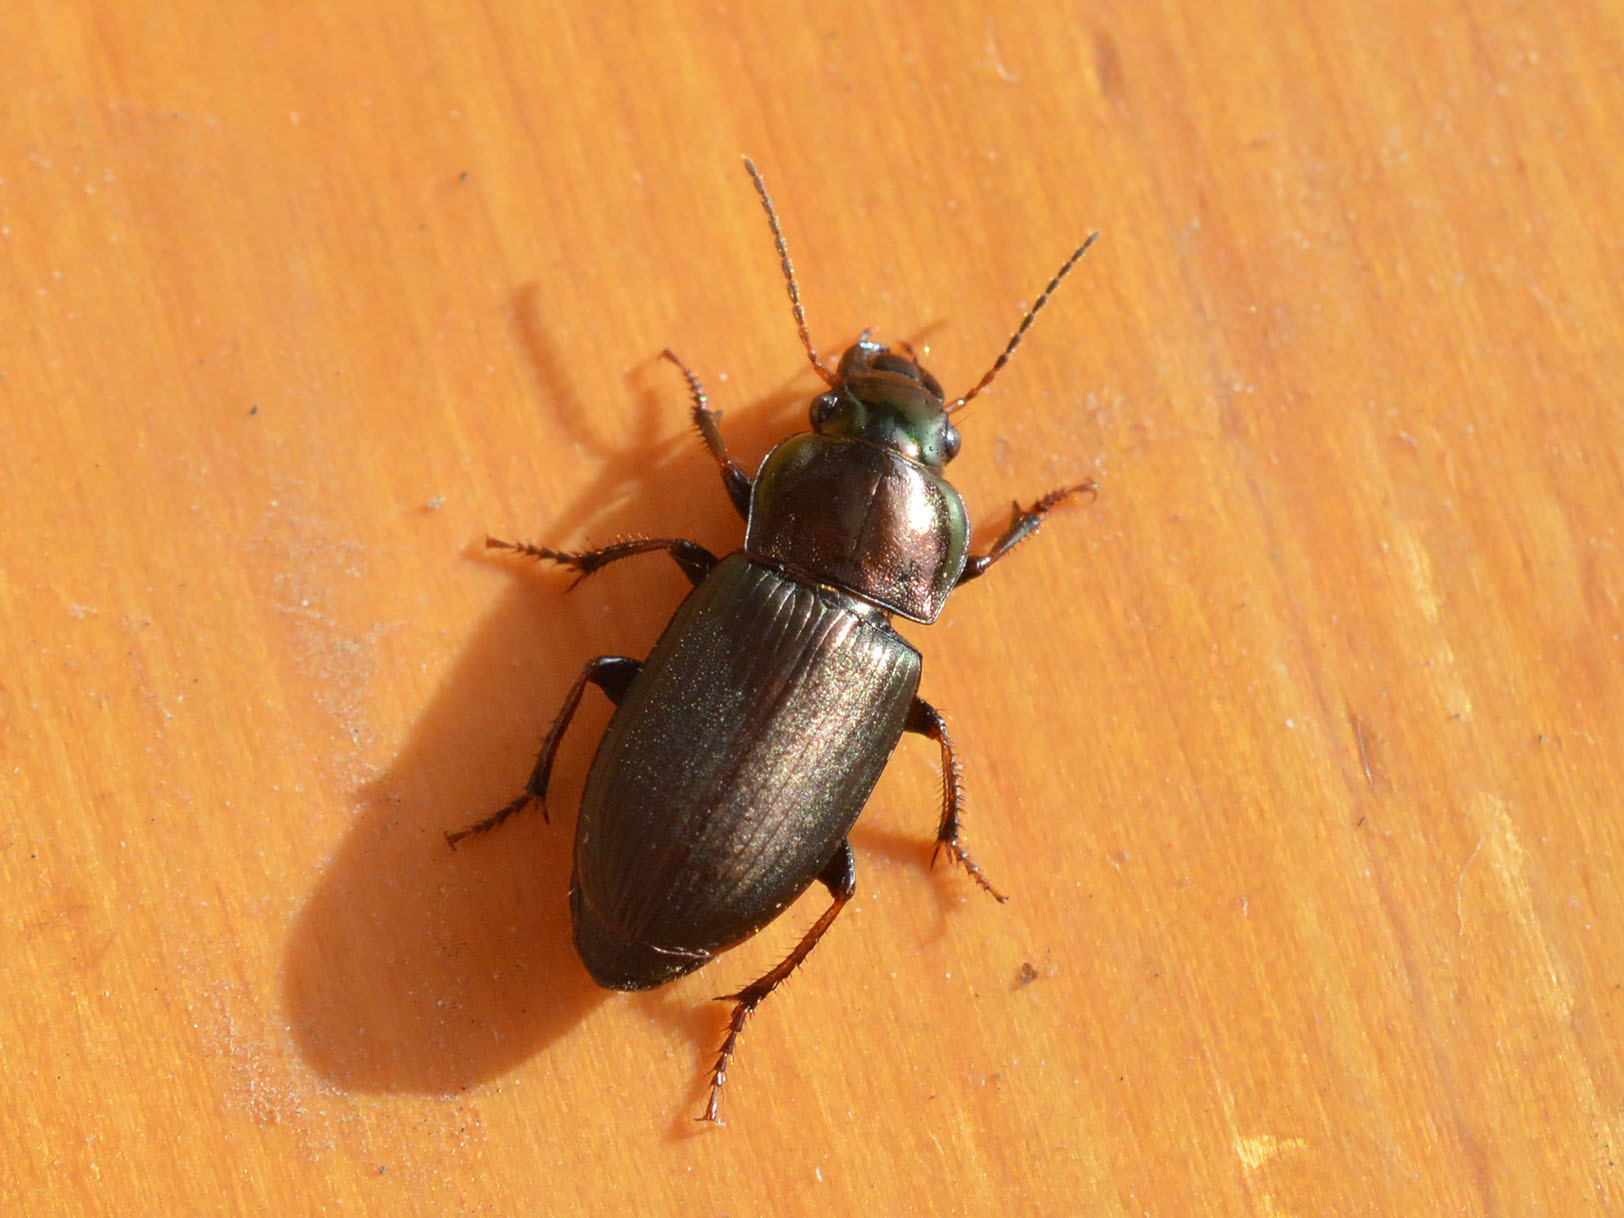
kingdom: Animalia
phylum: Arthropoda
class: Insecta
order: Coleoptera
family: Carabidae
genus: Harpalus
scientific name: Harpalus distinguendus
